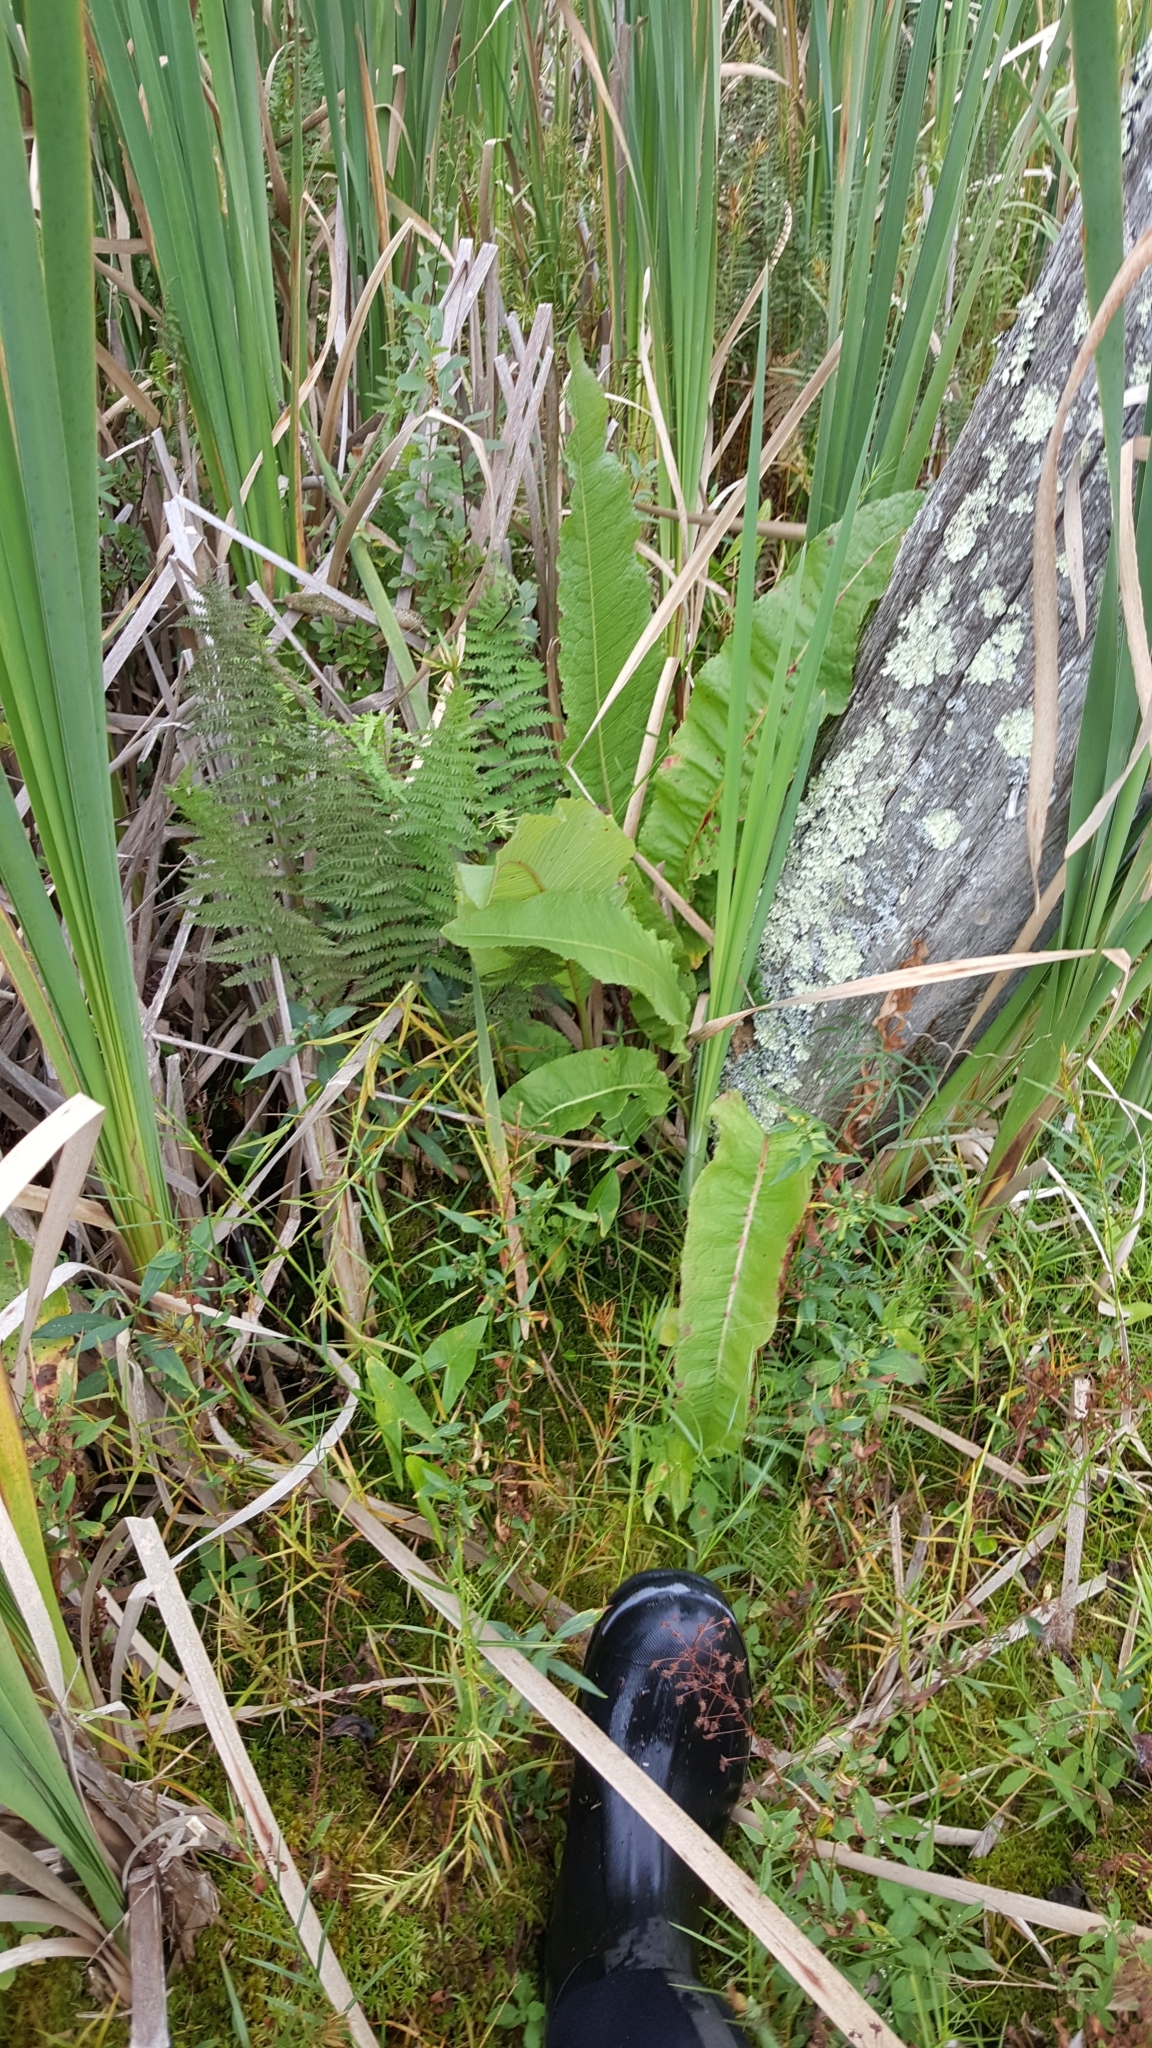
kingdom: Plantae
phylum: Tracheophyta
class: Magnoliopsida
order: Caryophyllales
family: Polygonaceae
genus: Rumex
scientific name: Rumex britannica
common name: British dock
